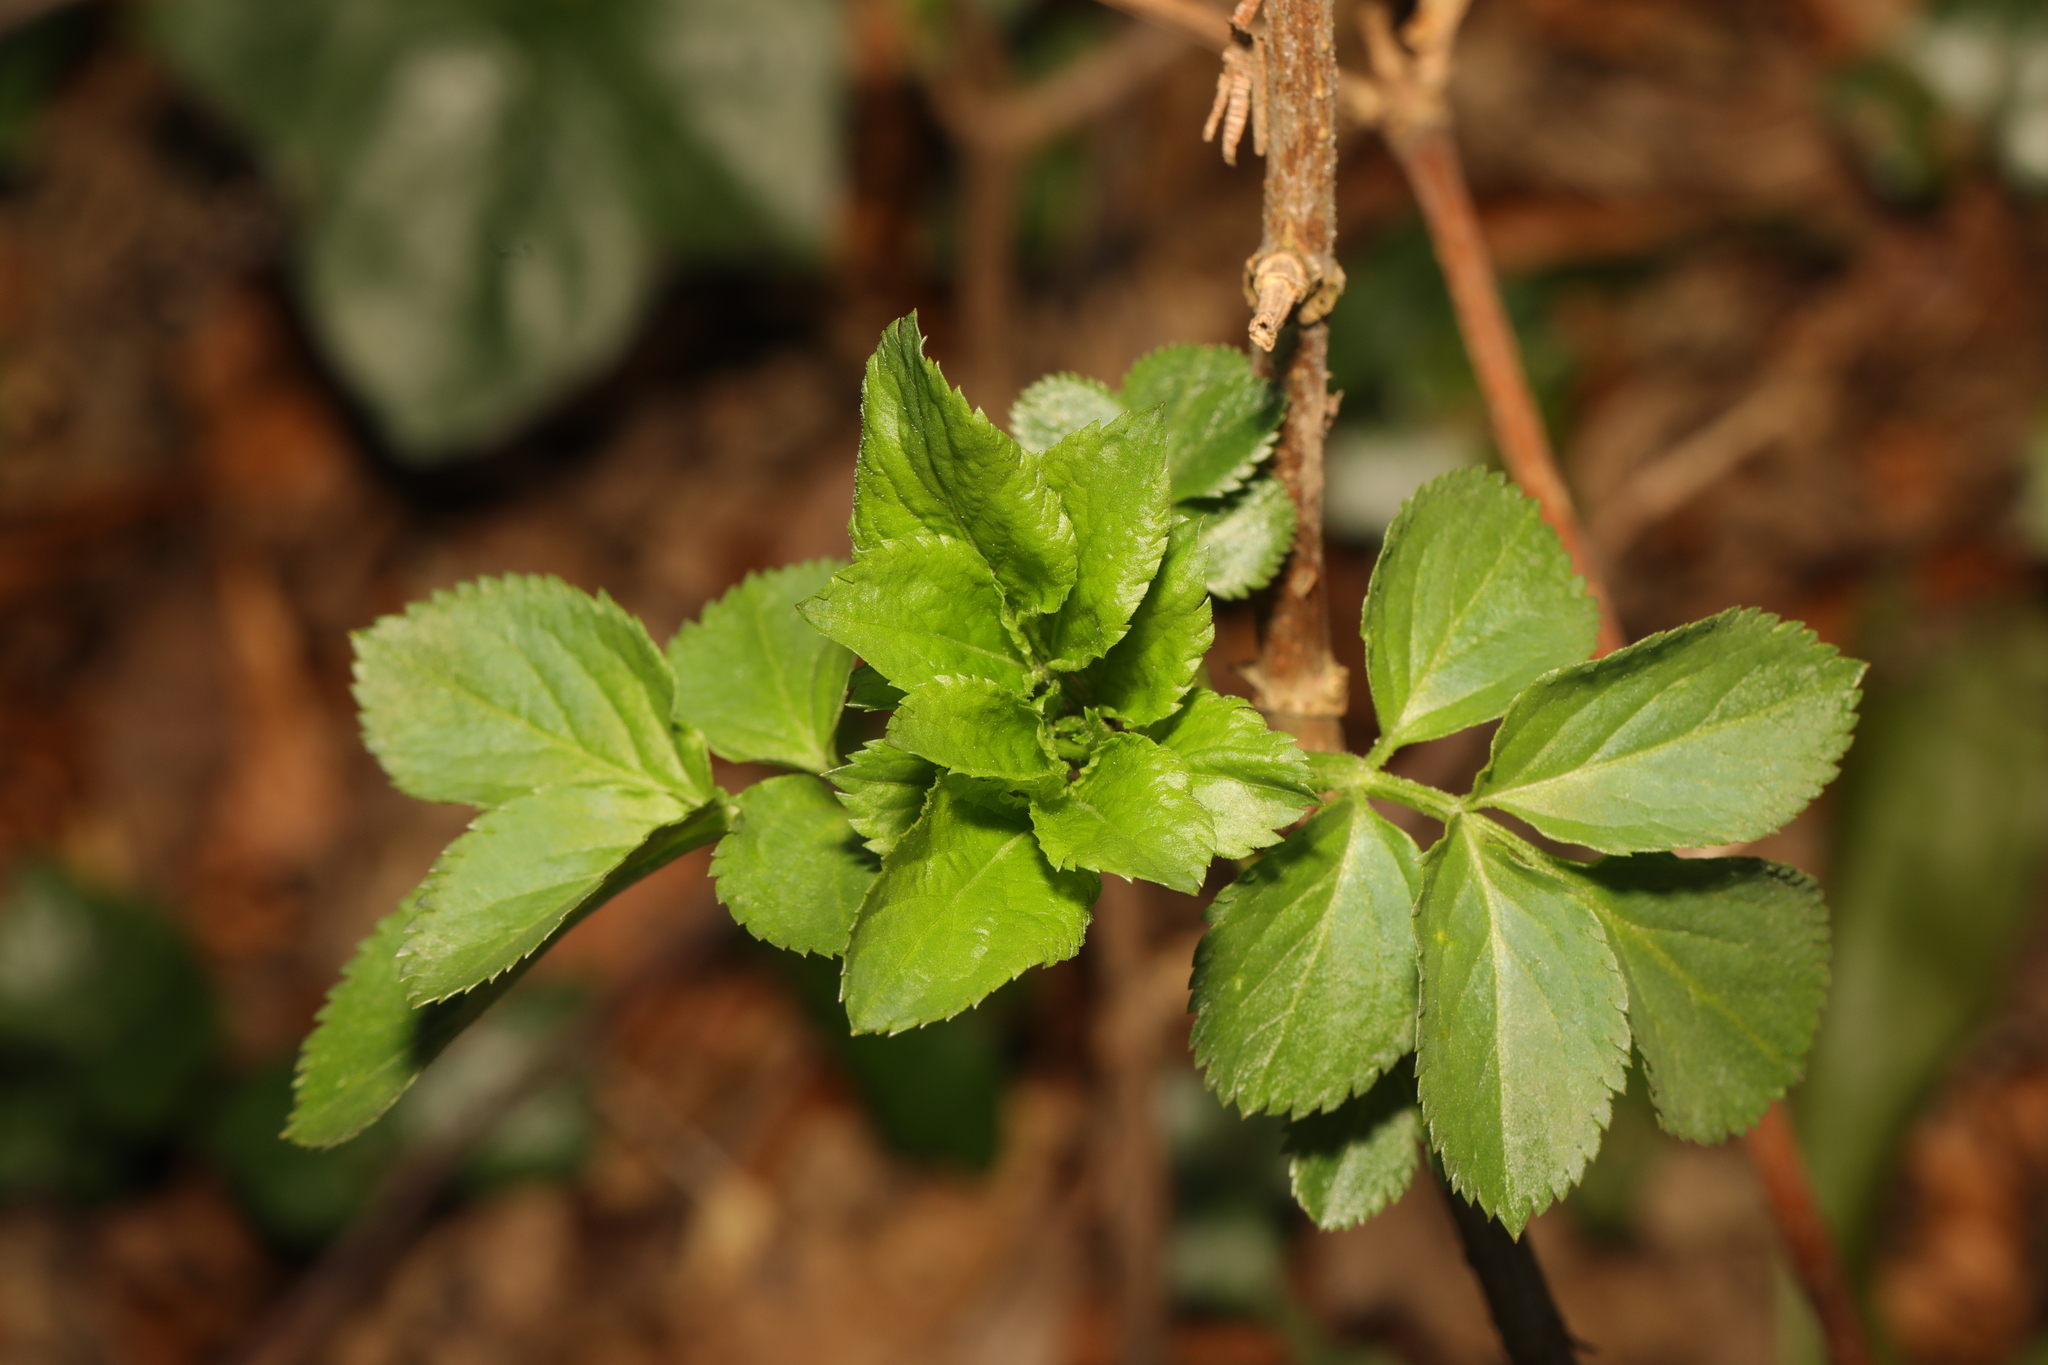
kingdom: Plantae
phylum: Tracheophyta
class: Magnoliopsida
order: Dipsacales
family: Viburnaceae
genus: Sambucus
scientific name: Sambucus nigra
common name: Elder
